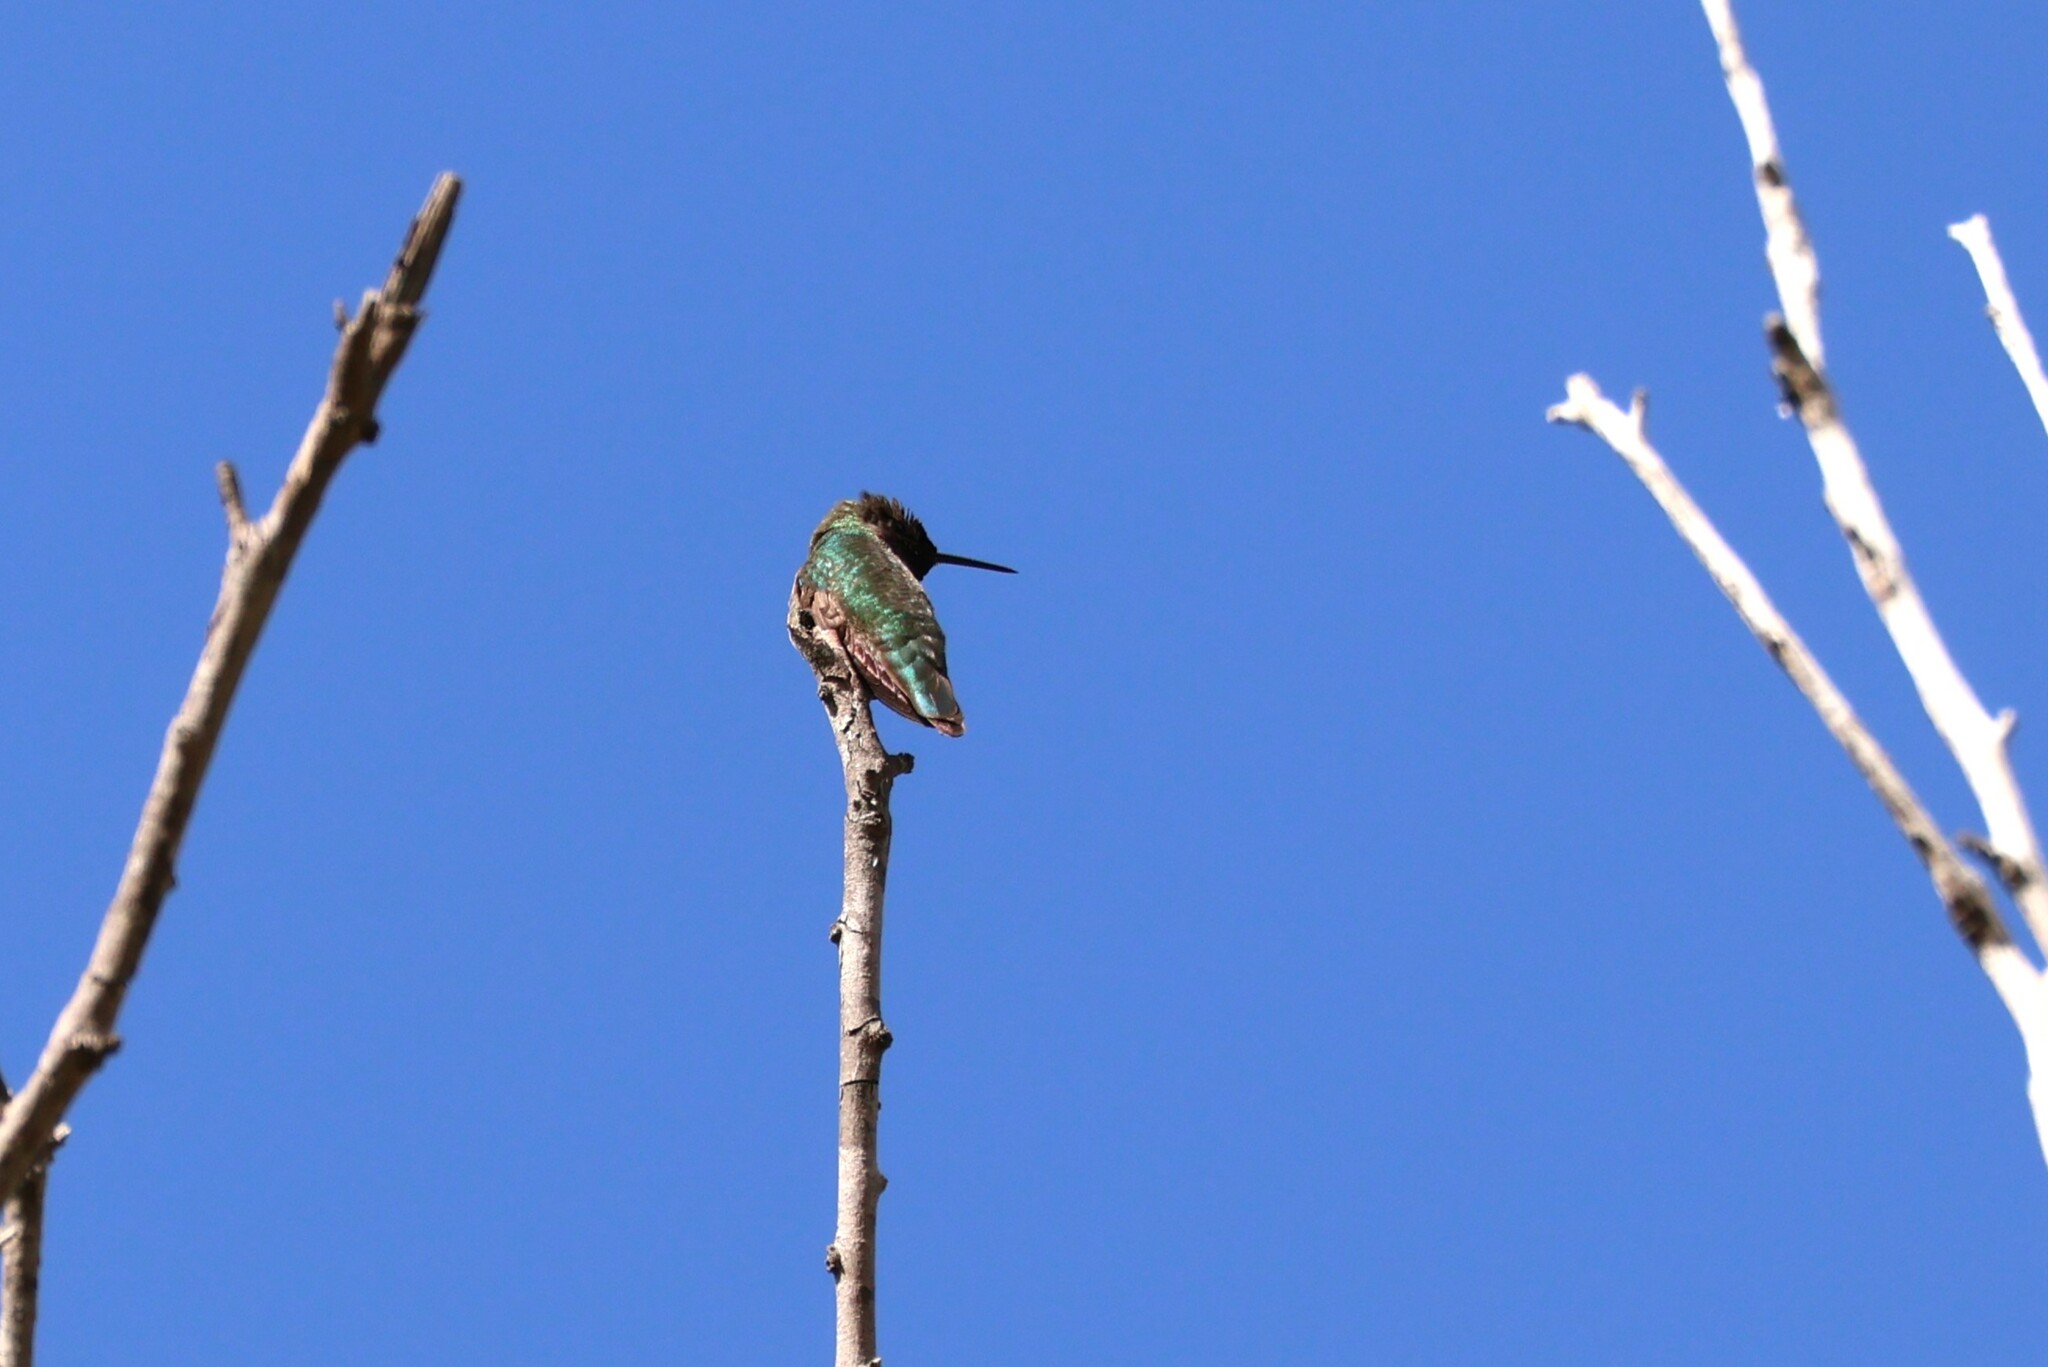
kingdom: Animalia
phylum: Chordata
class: Aves
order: Apodiformes
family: Trochilidae
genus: Calypte
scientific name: Calypte anna
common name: Anna's hummingbird
